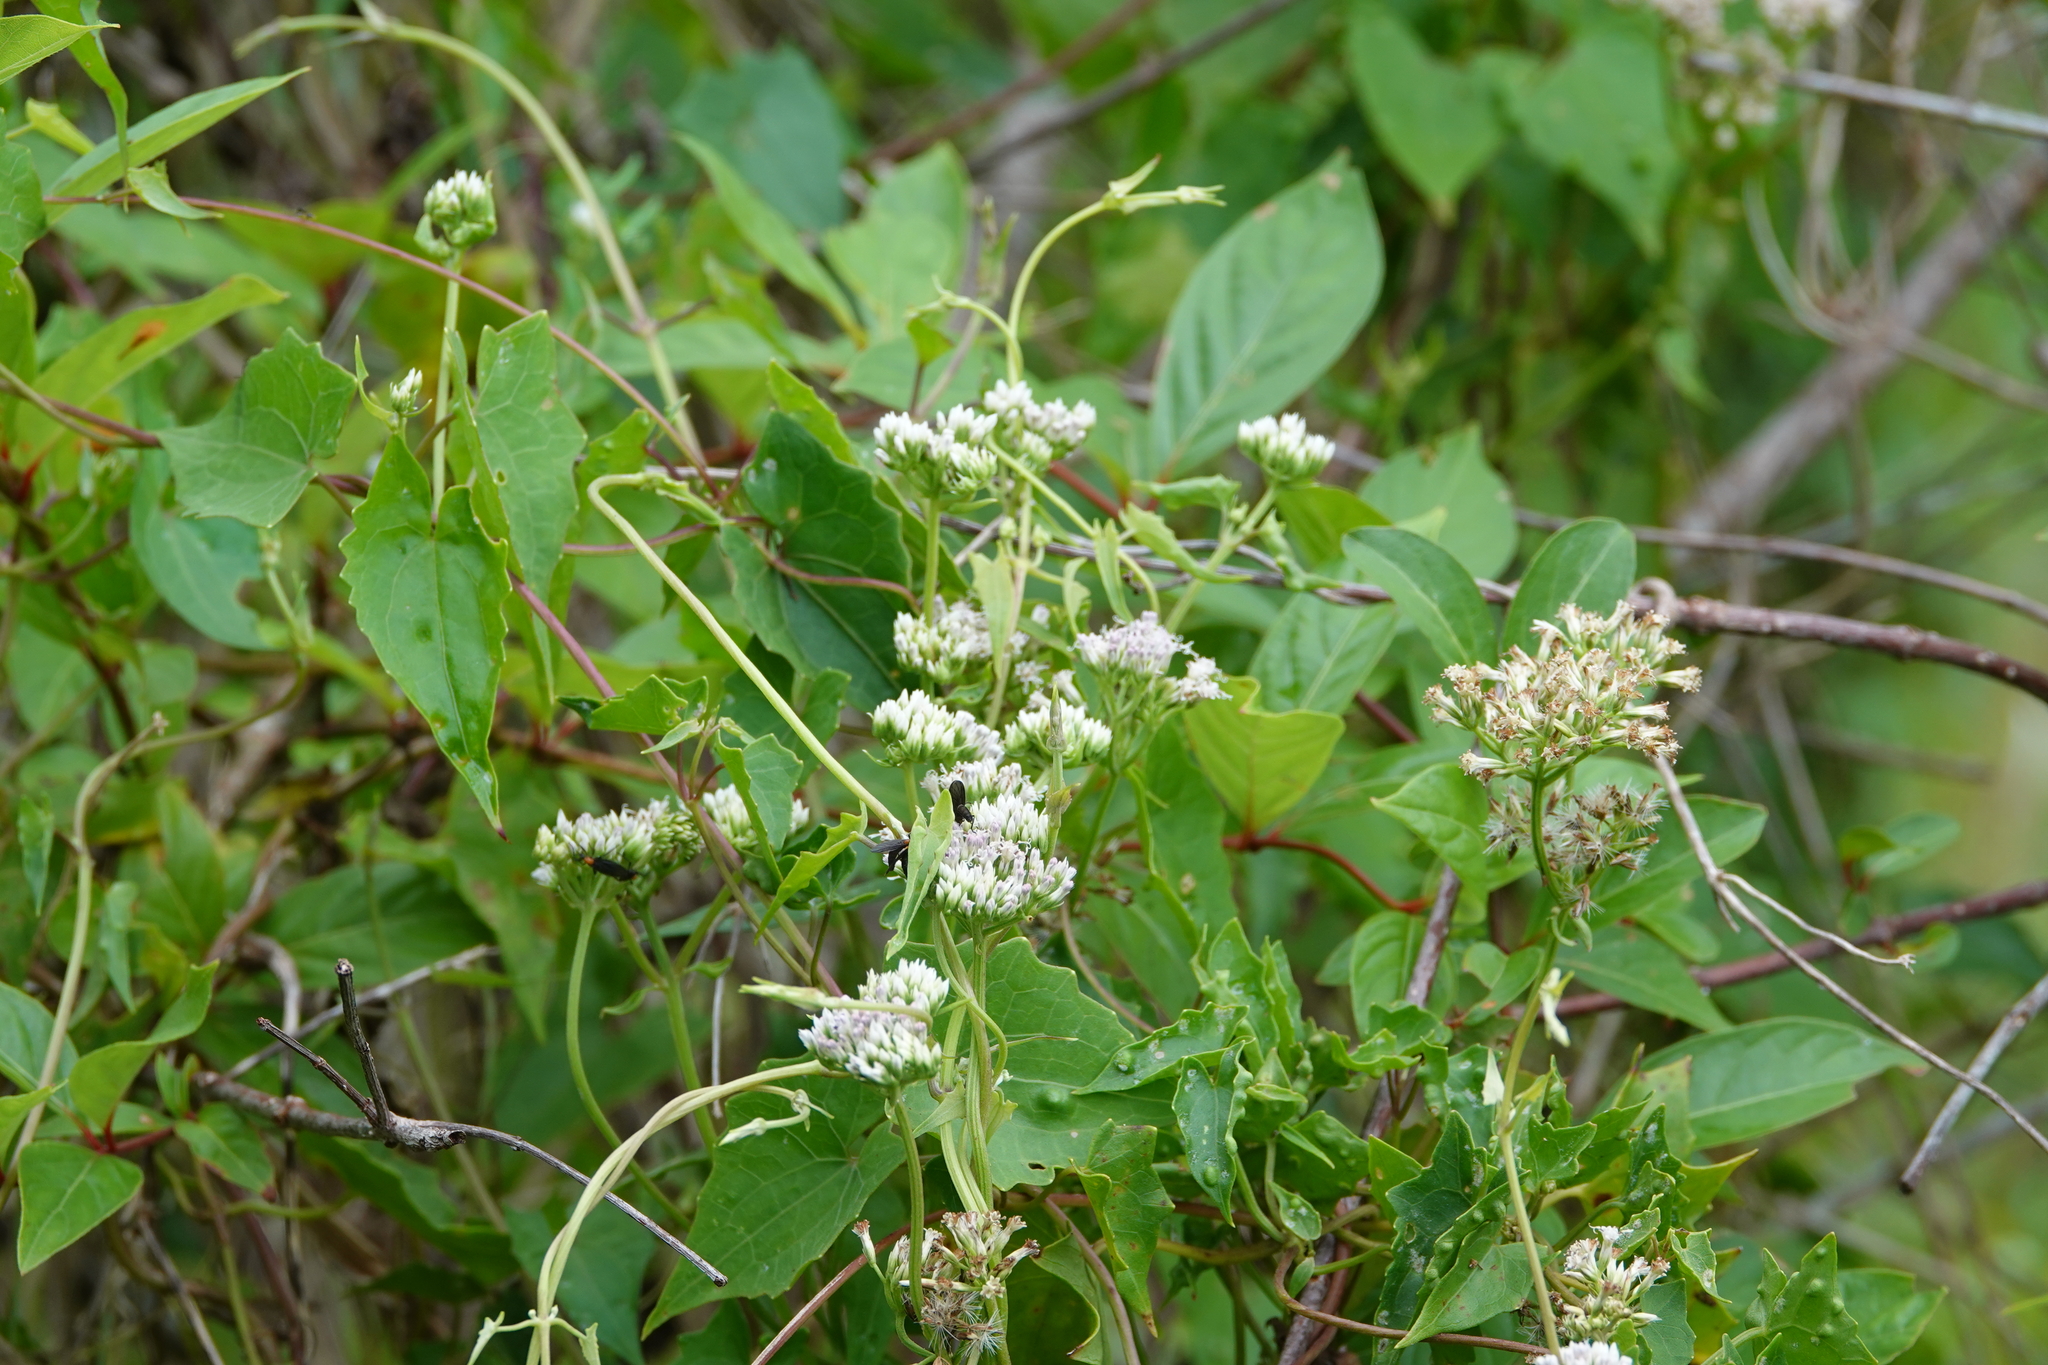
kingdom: Plantae
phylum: Tracheophyta
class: Magnoliopsida
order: Asterales
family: Asteraceae
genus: Mikania
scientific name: Mikania scandens
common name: Climbing hempvine
